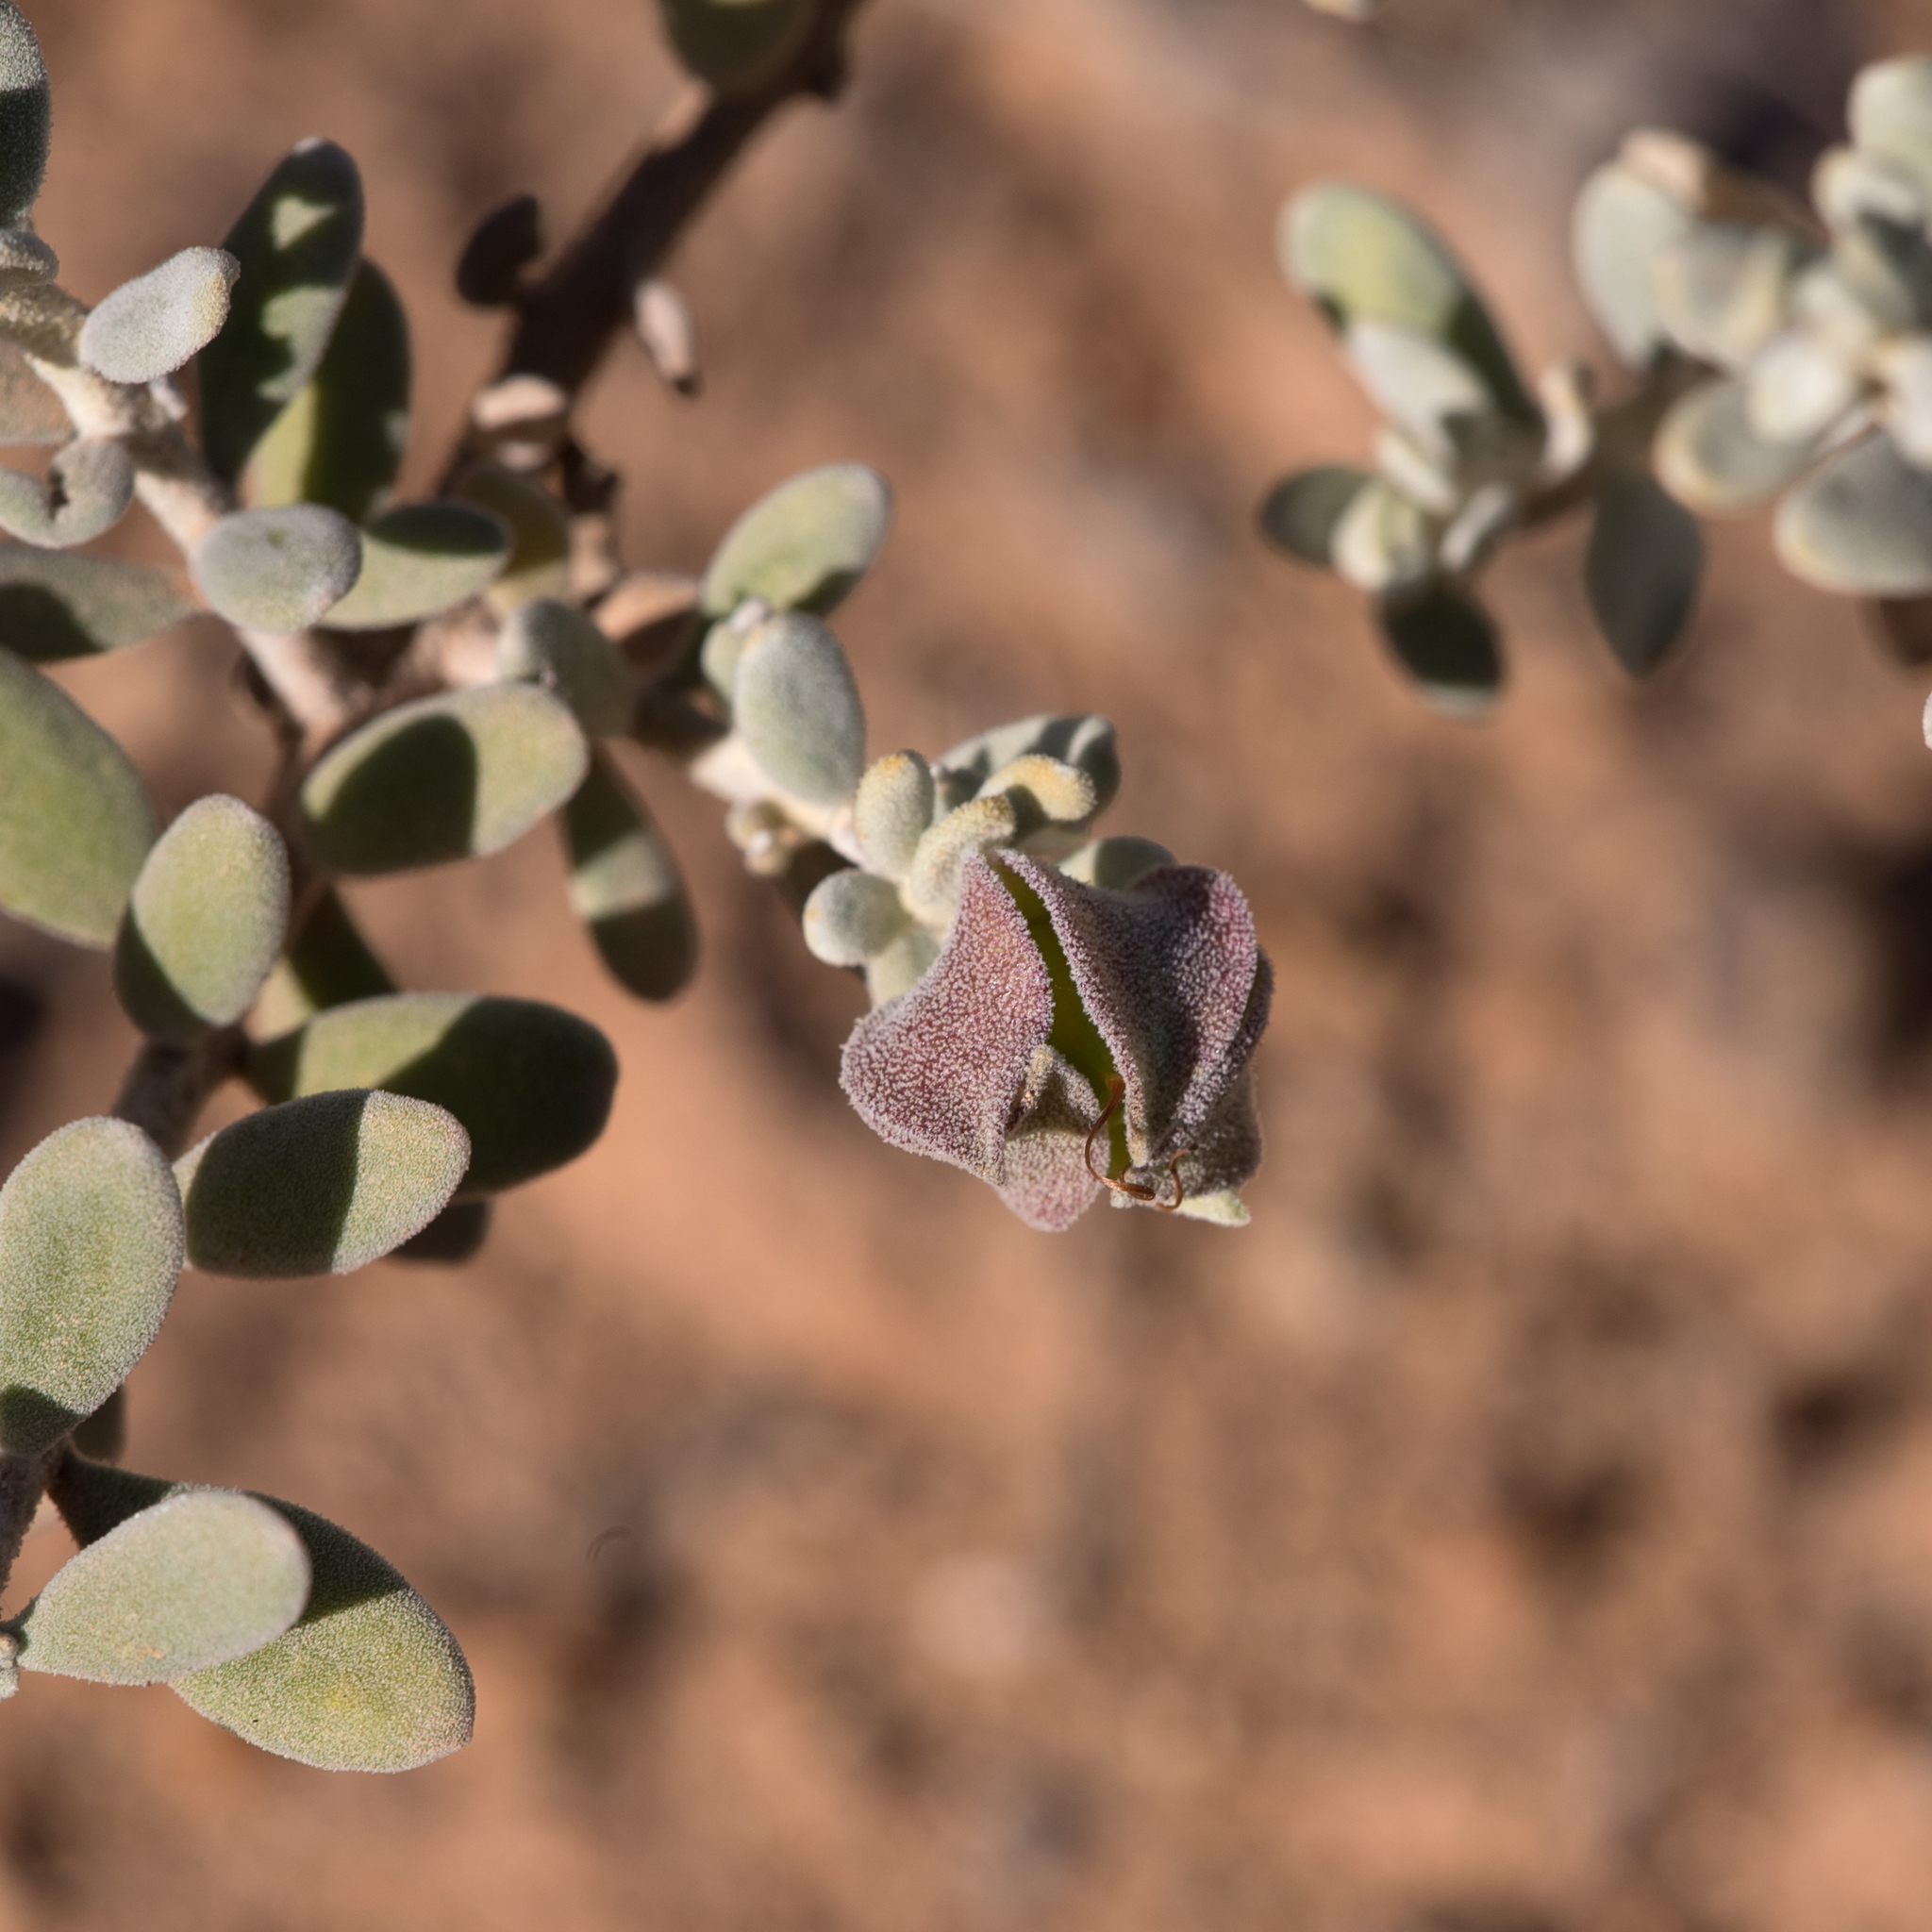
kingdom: Plantae
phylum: Tracheophyta
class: Magnoliopsida
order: Lamiales
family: Scrophulariaceae
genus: Eremophila
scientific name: Eremophila cordatisepala
